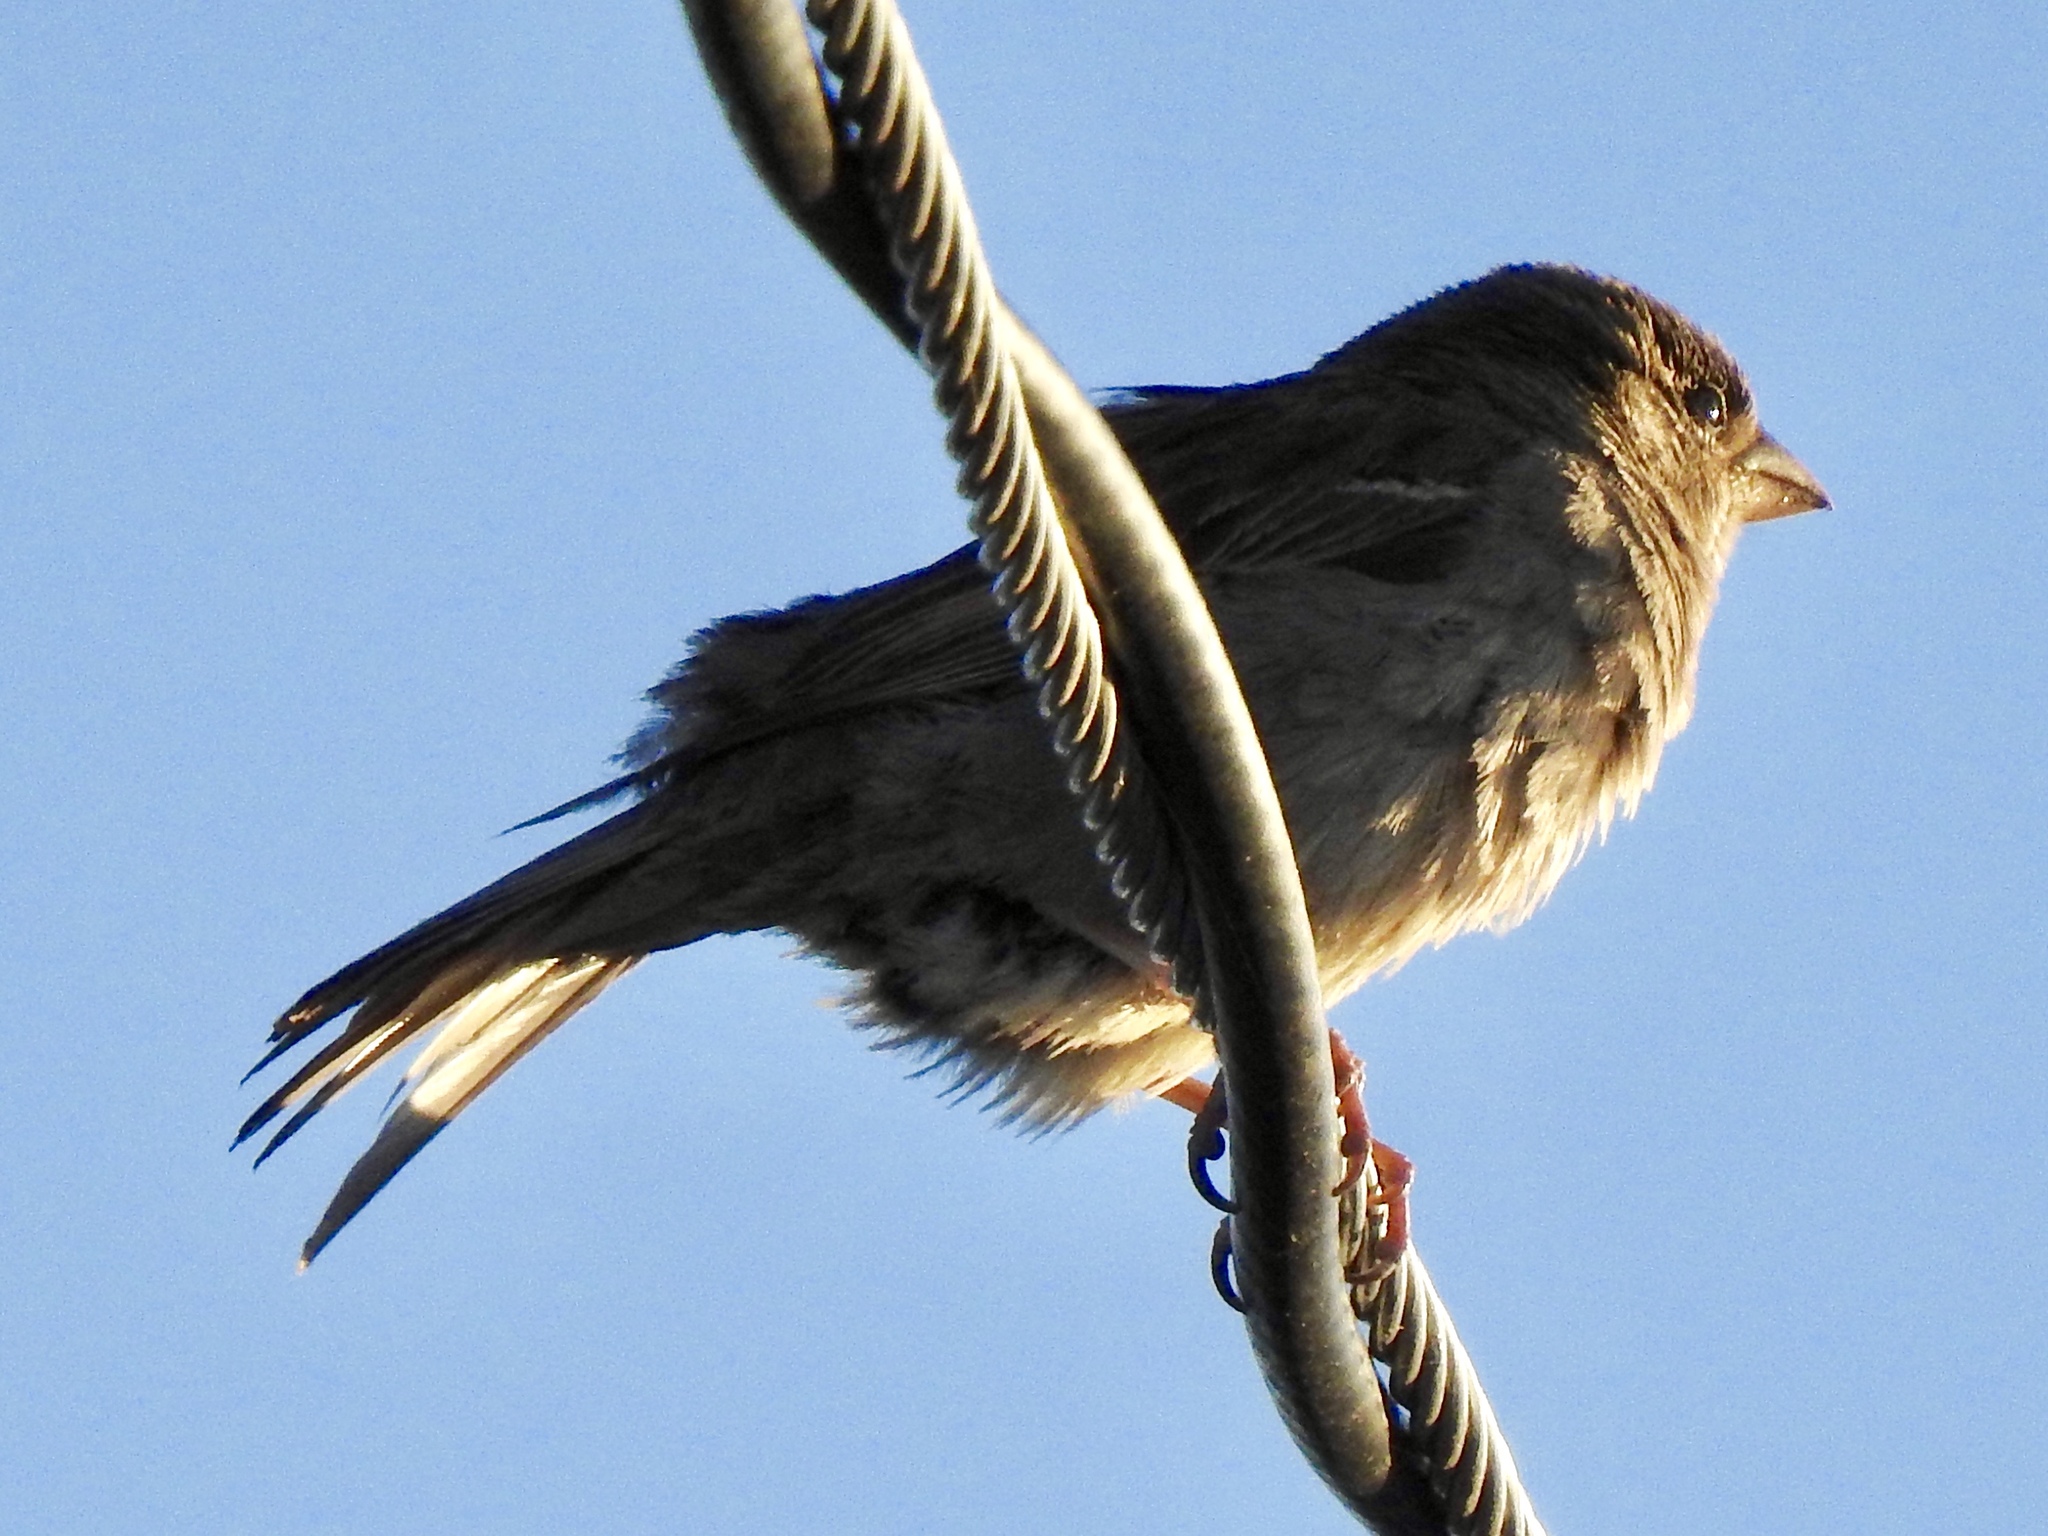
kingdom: Animalia
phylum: Chordata
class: Aves
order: Passeriformes
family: Passeridae
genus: Passer
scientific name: Passer domesticus
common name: House sparrow
